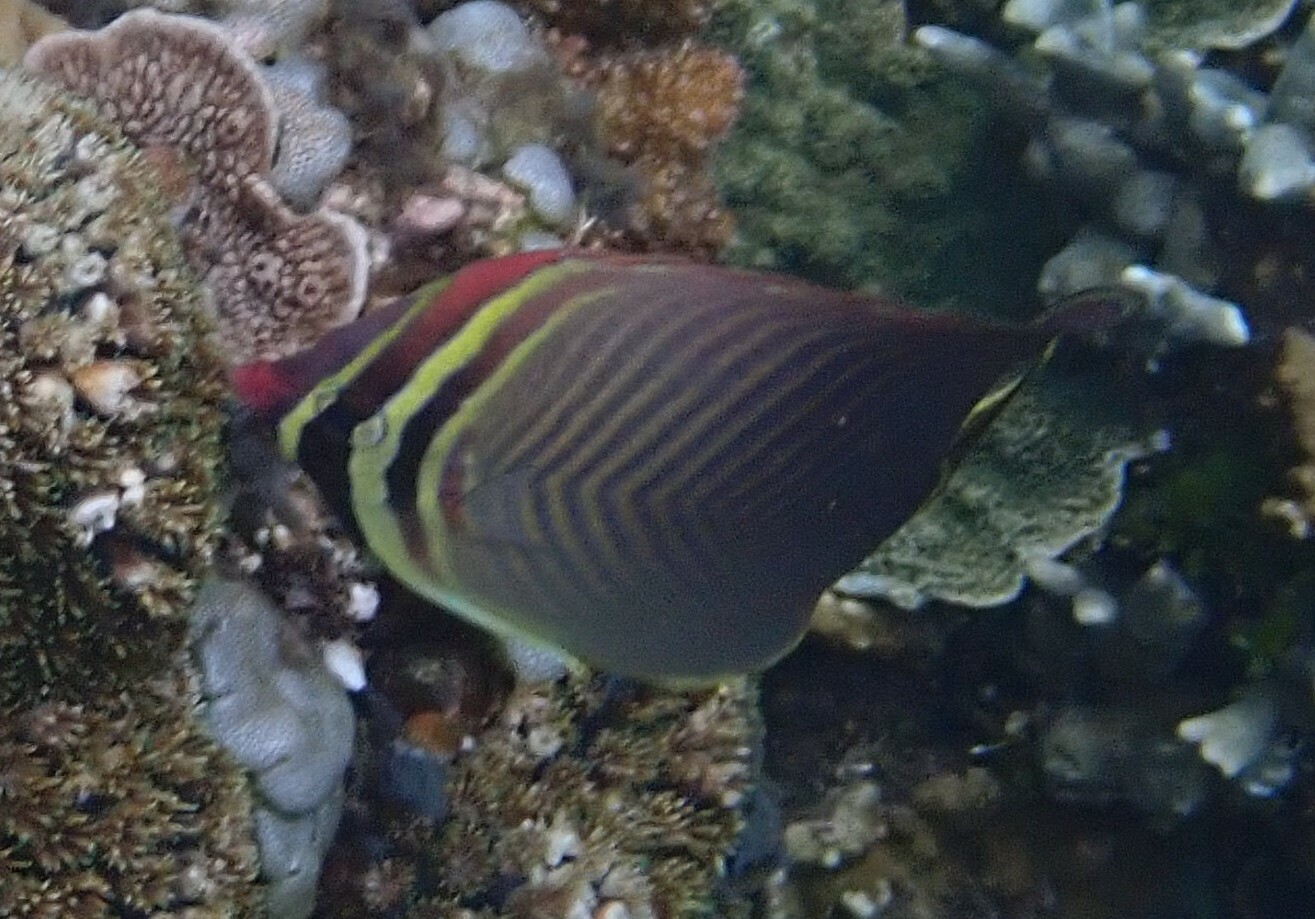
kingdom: Animalia
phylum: Chordata
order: Perciformes
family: Chaetodontidae
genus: Chaetodon
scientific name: Chaetodon baronessa
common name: Triangular butterflyfish
